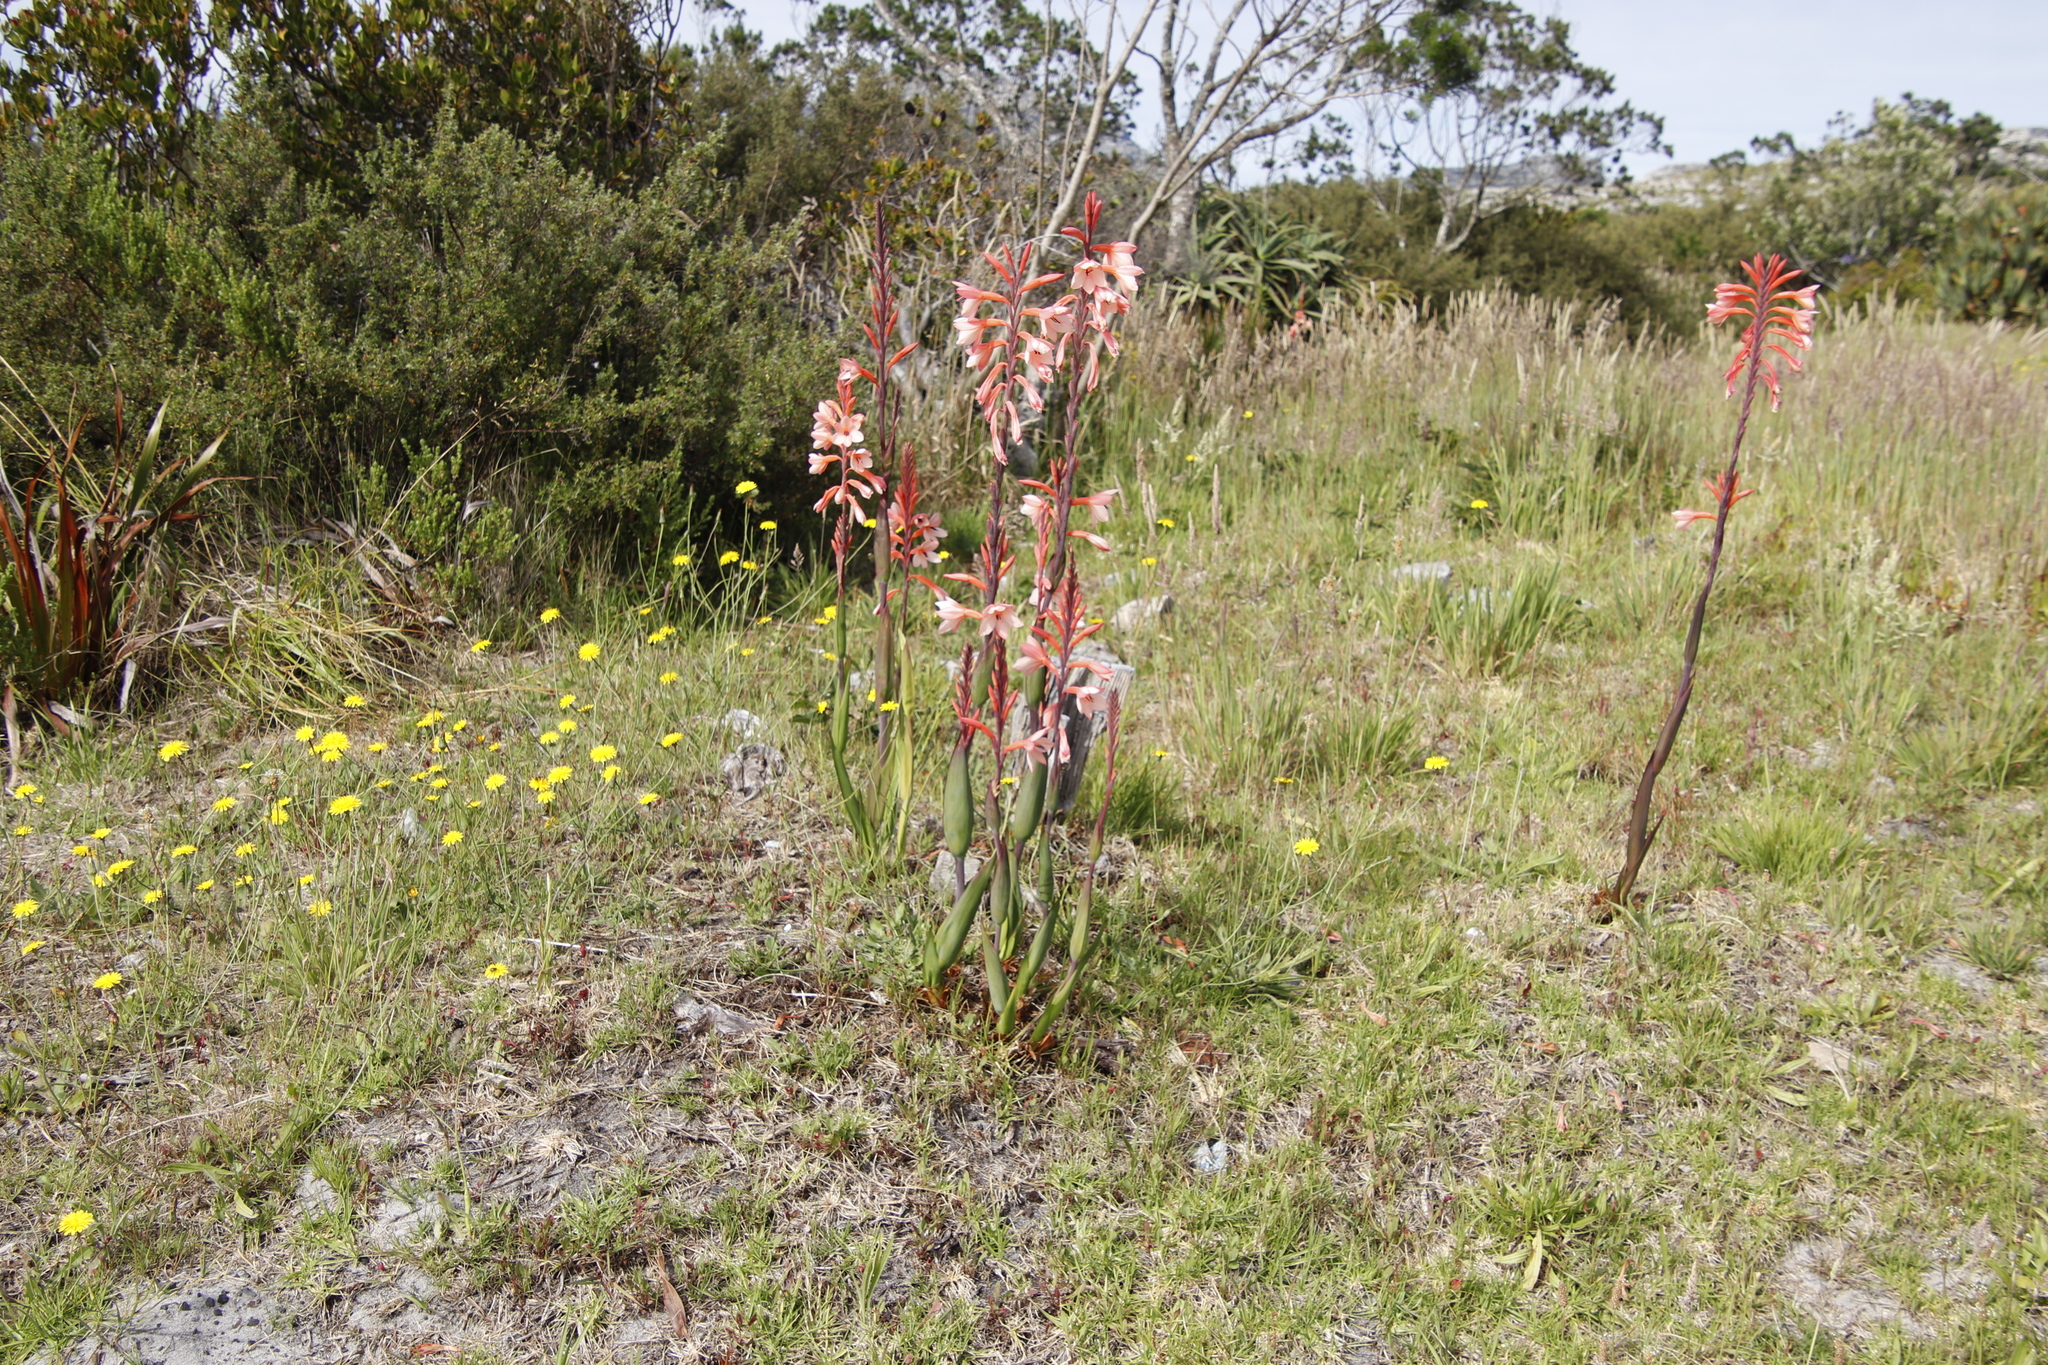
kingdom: Plantae
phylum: Tracheophyta
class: Liliopsida
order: Asparagales
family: Iridaceae
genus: Watsonia
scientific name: Watsonia tabularis
